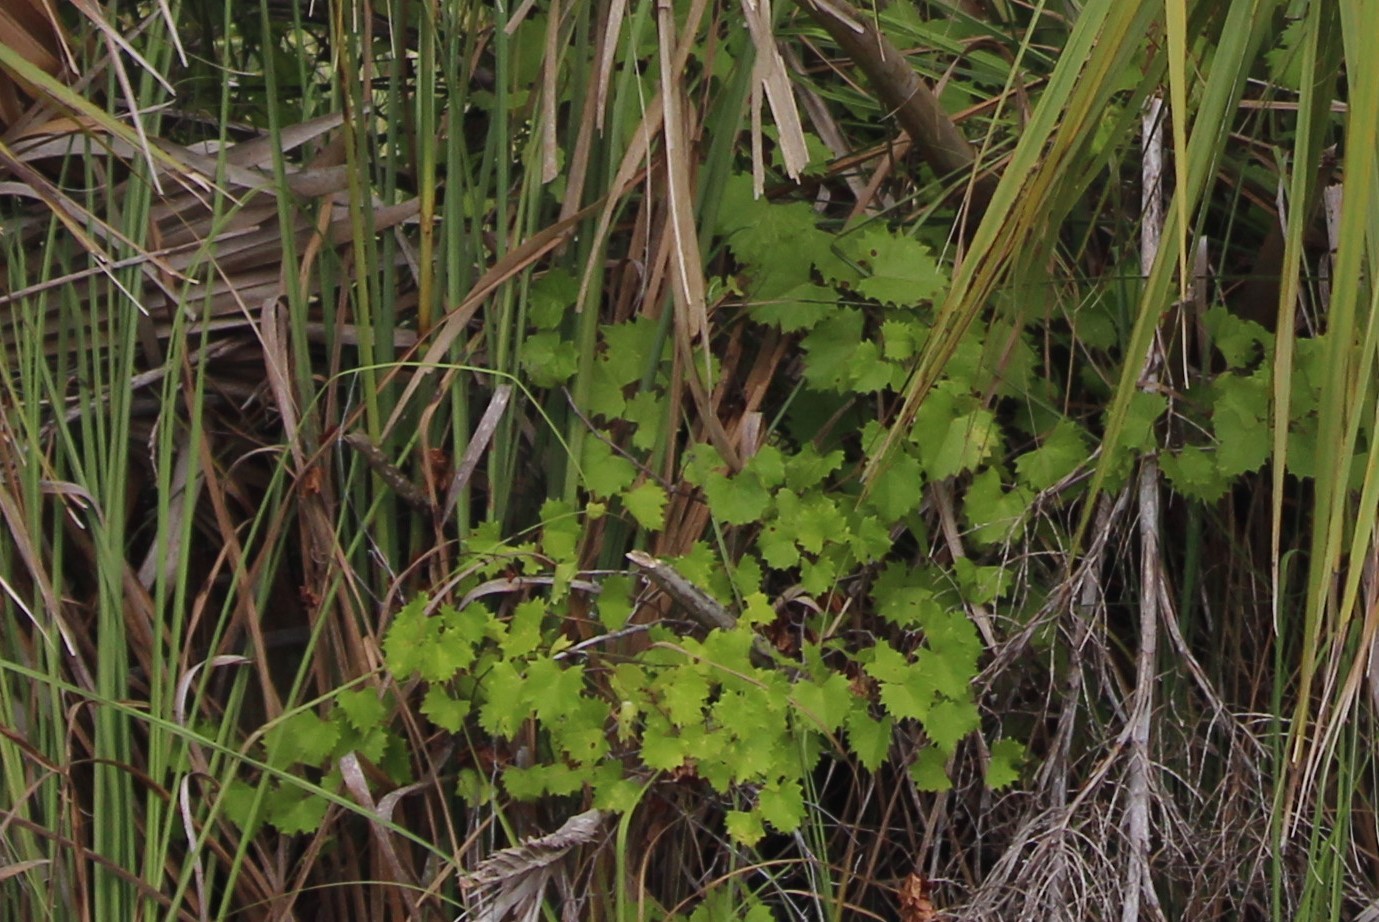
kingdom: Plantae
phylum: Tracheophyta
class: Magnoliopsida
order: Vitales
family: Vitaceae
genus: Vitis
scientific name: Vitis rotundifolia
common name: Muscadine grape
